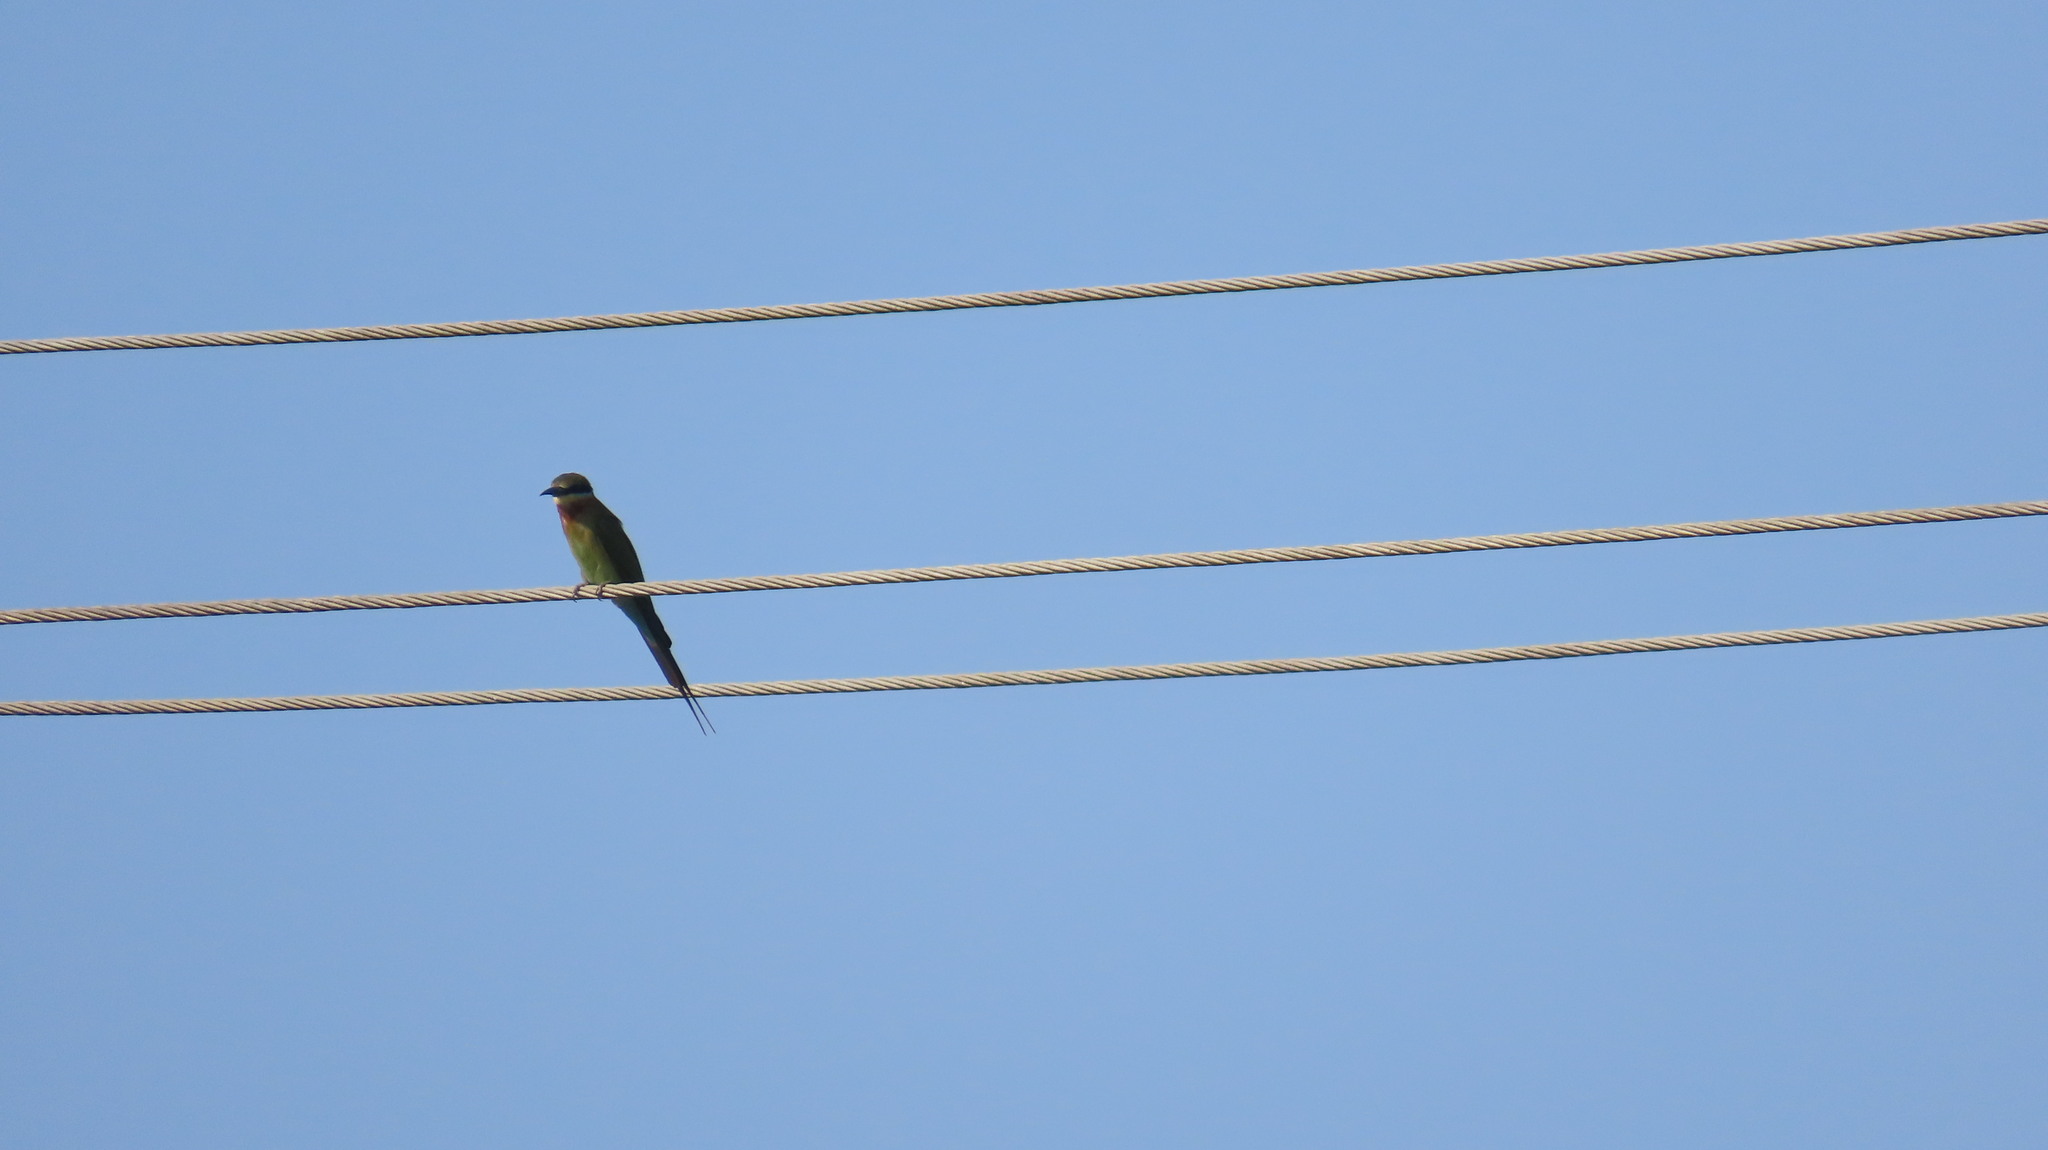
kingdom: Animalia
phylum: Chordata
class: Aves
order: Coraciiformes
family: Meropidae
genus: Merops
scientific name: Merops philippinus
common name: Blue-tailed bee-eater
